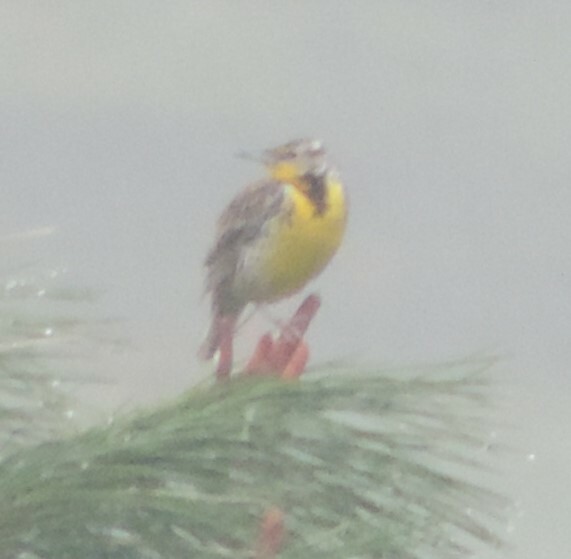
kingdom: Animalia
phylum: Chordata
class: Aves
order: Passeriformes
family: Icteridae
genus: Sturnella
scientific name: Sturnella neglecta
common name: Western meadowlark
